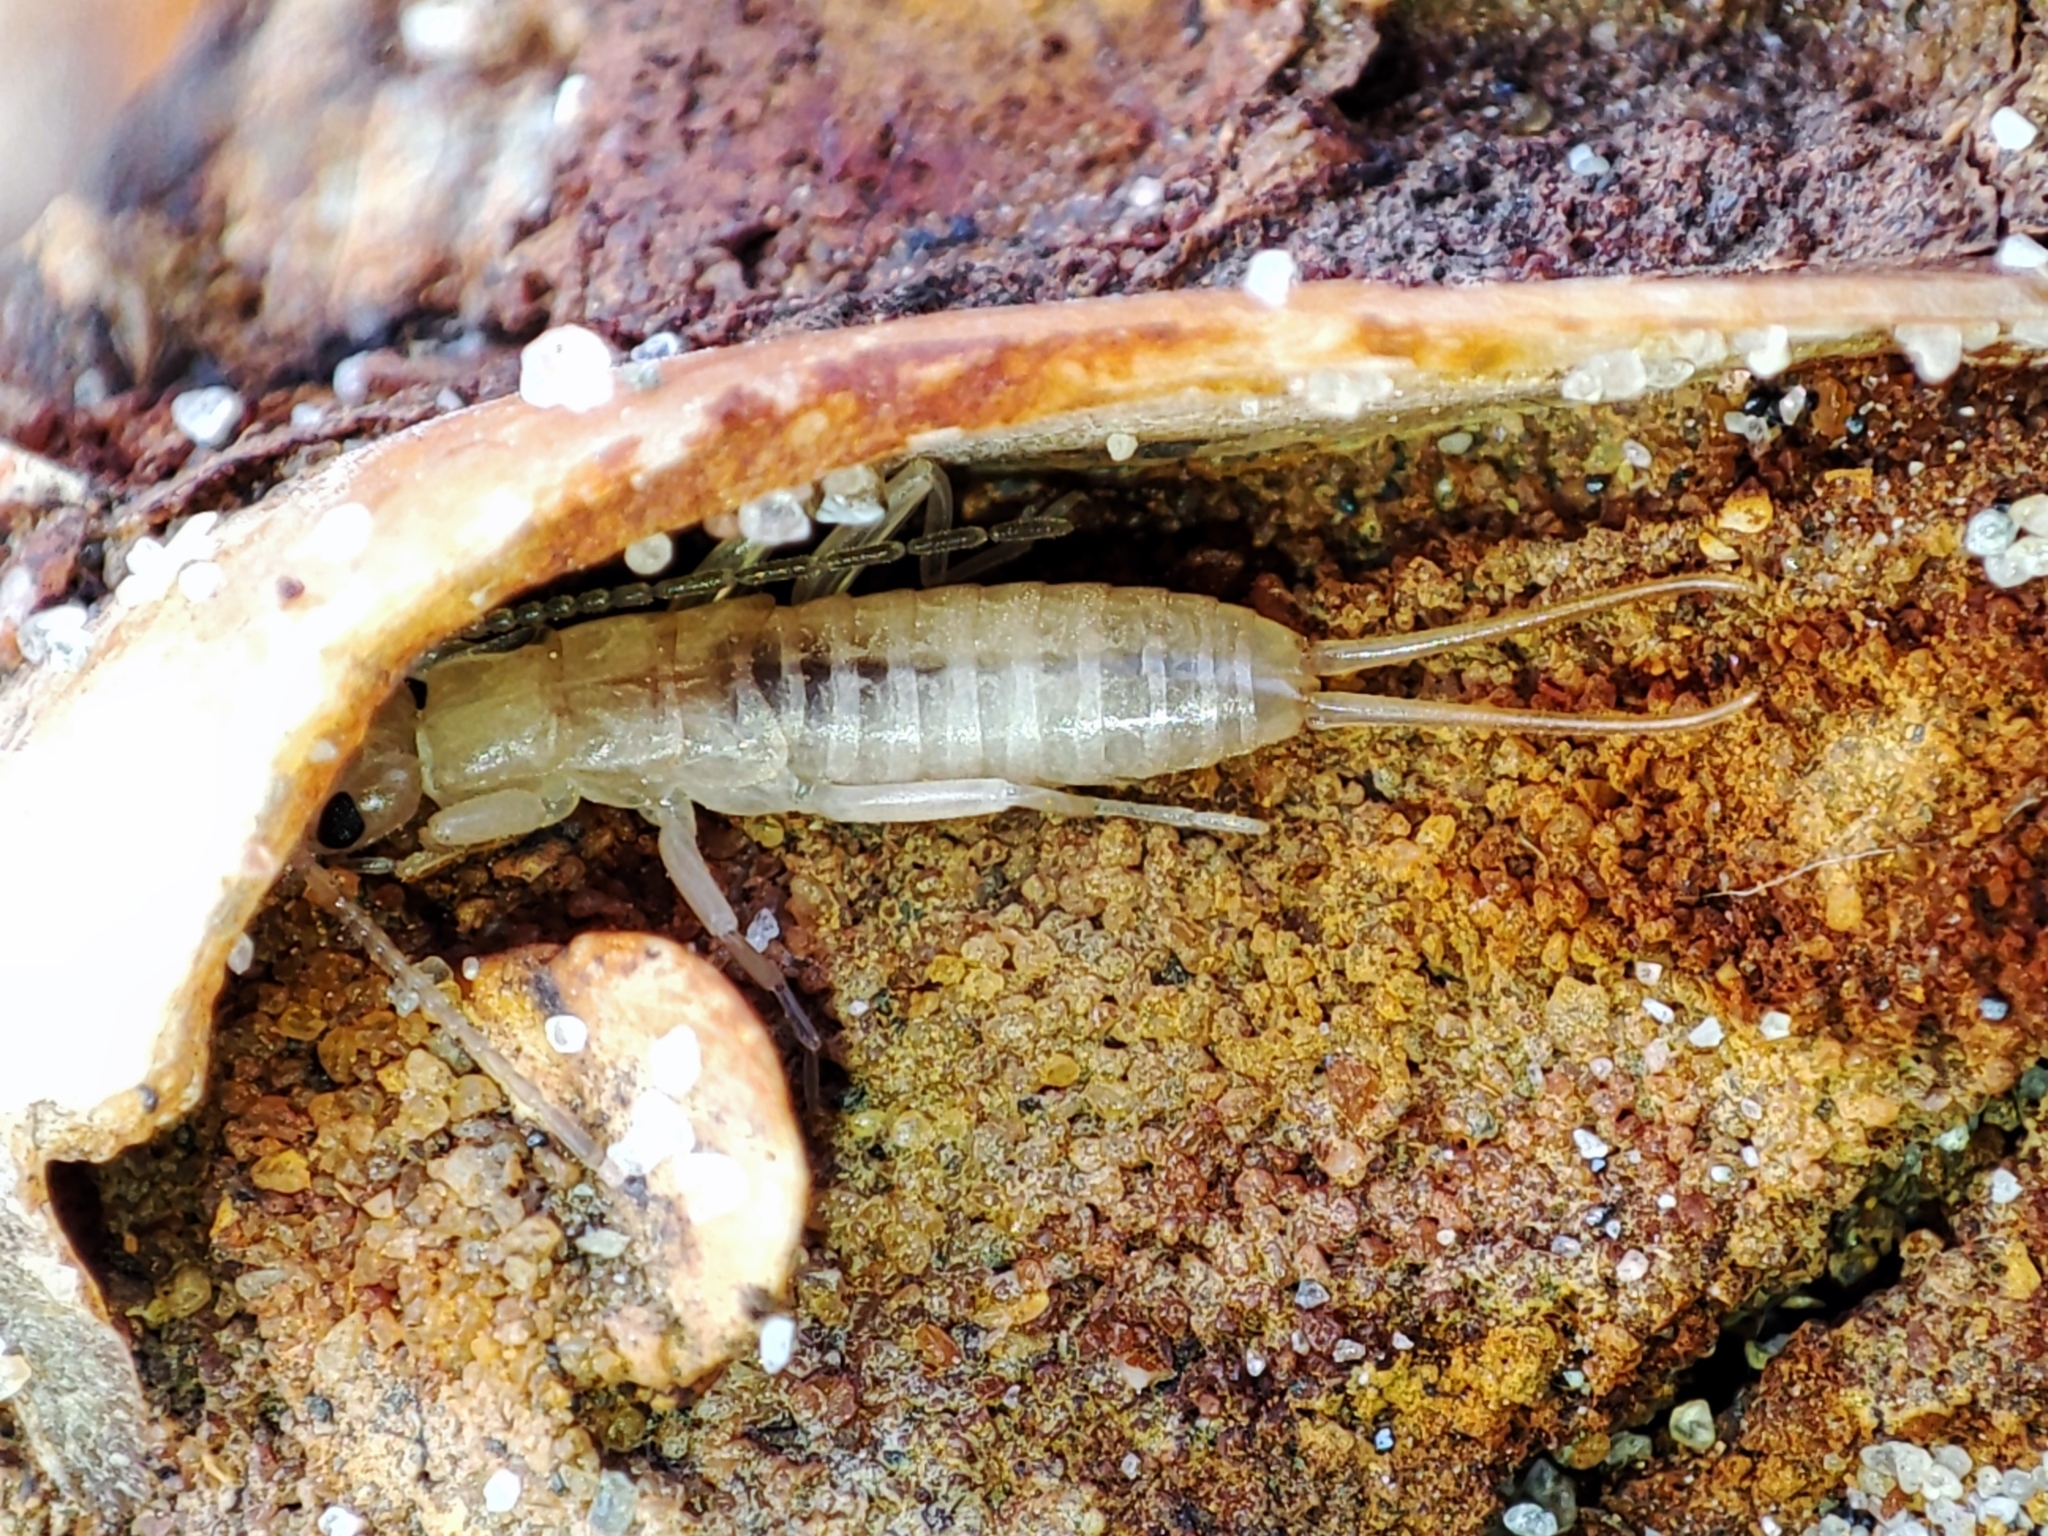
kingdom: Animalia
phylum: Arthropoda
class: Insecta
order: Dermaptera
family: Labiduridae
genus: Labidura
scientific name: Labidura riparia
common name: Striped earwig
